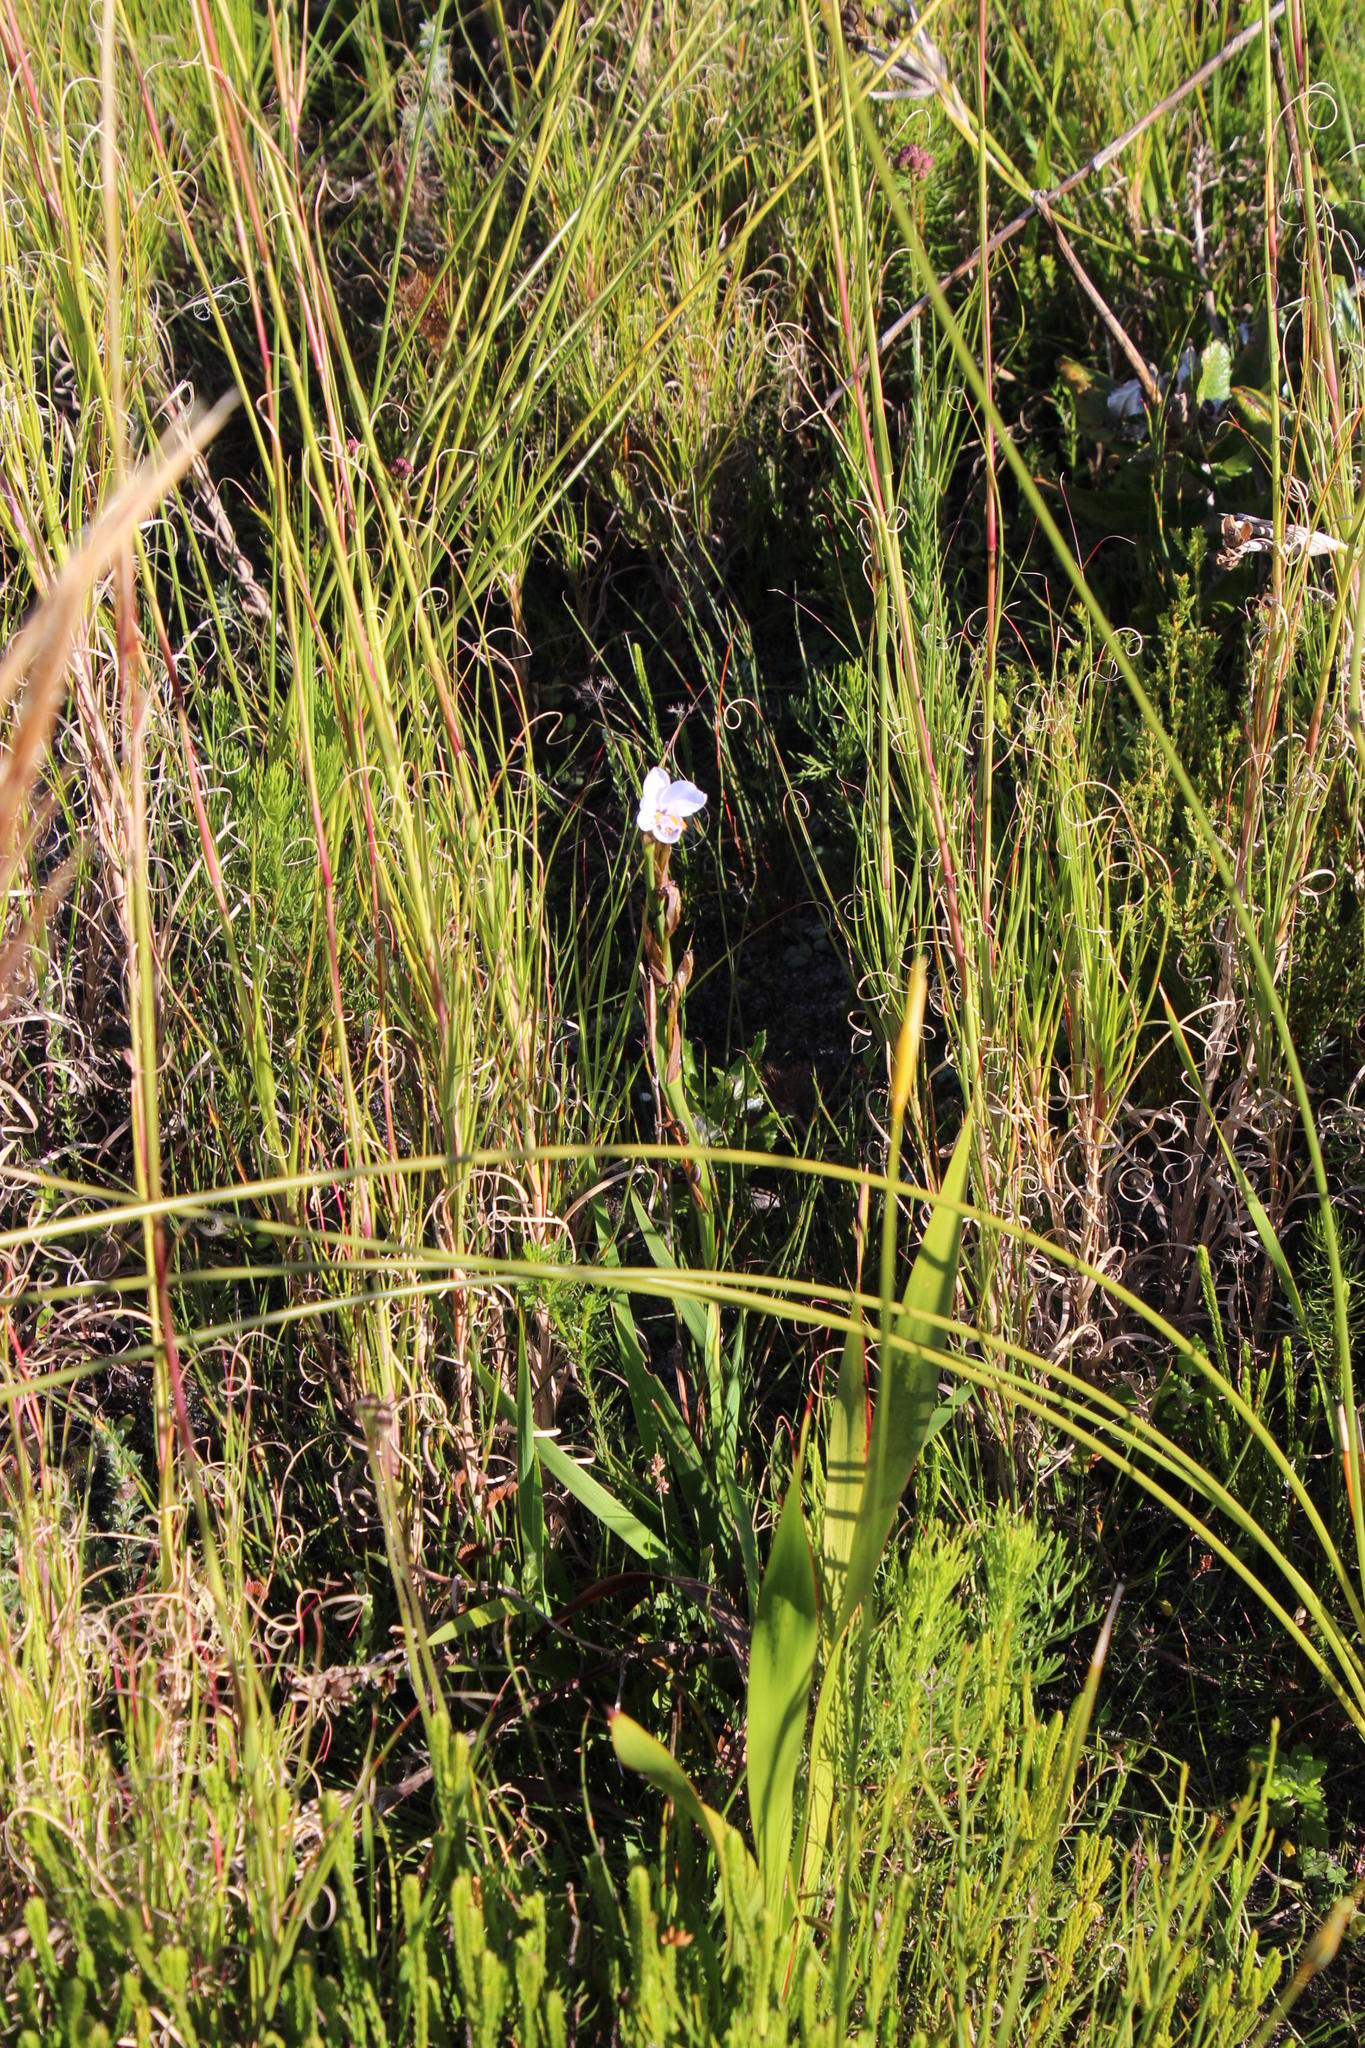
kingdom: Plantae
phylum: Tracheophyta
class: Liliopsida
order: Asparagales
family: Iridaceae
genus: Aristea
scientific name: Aristea spiralis
